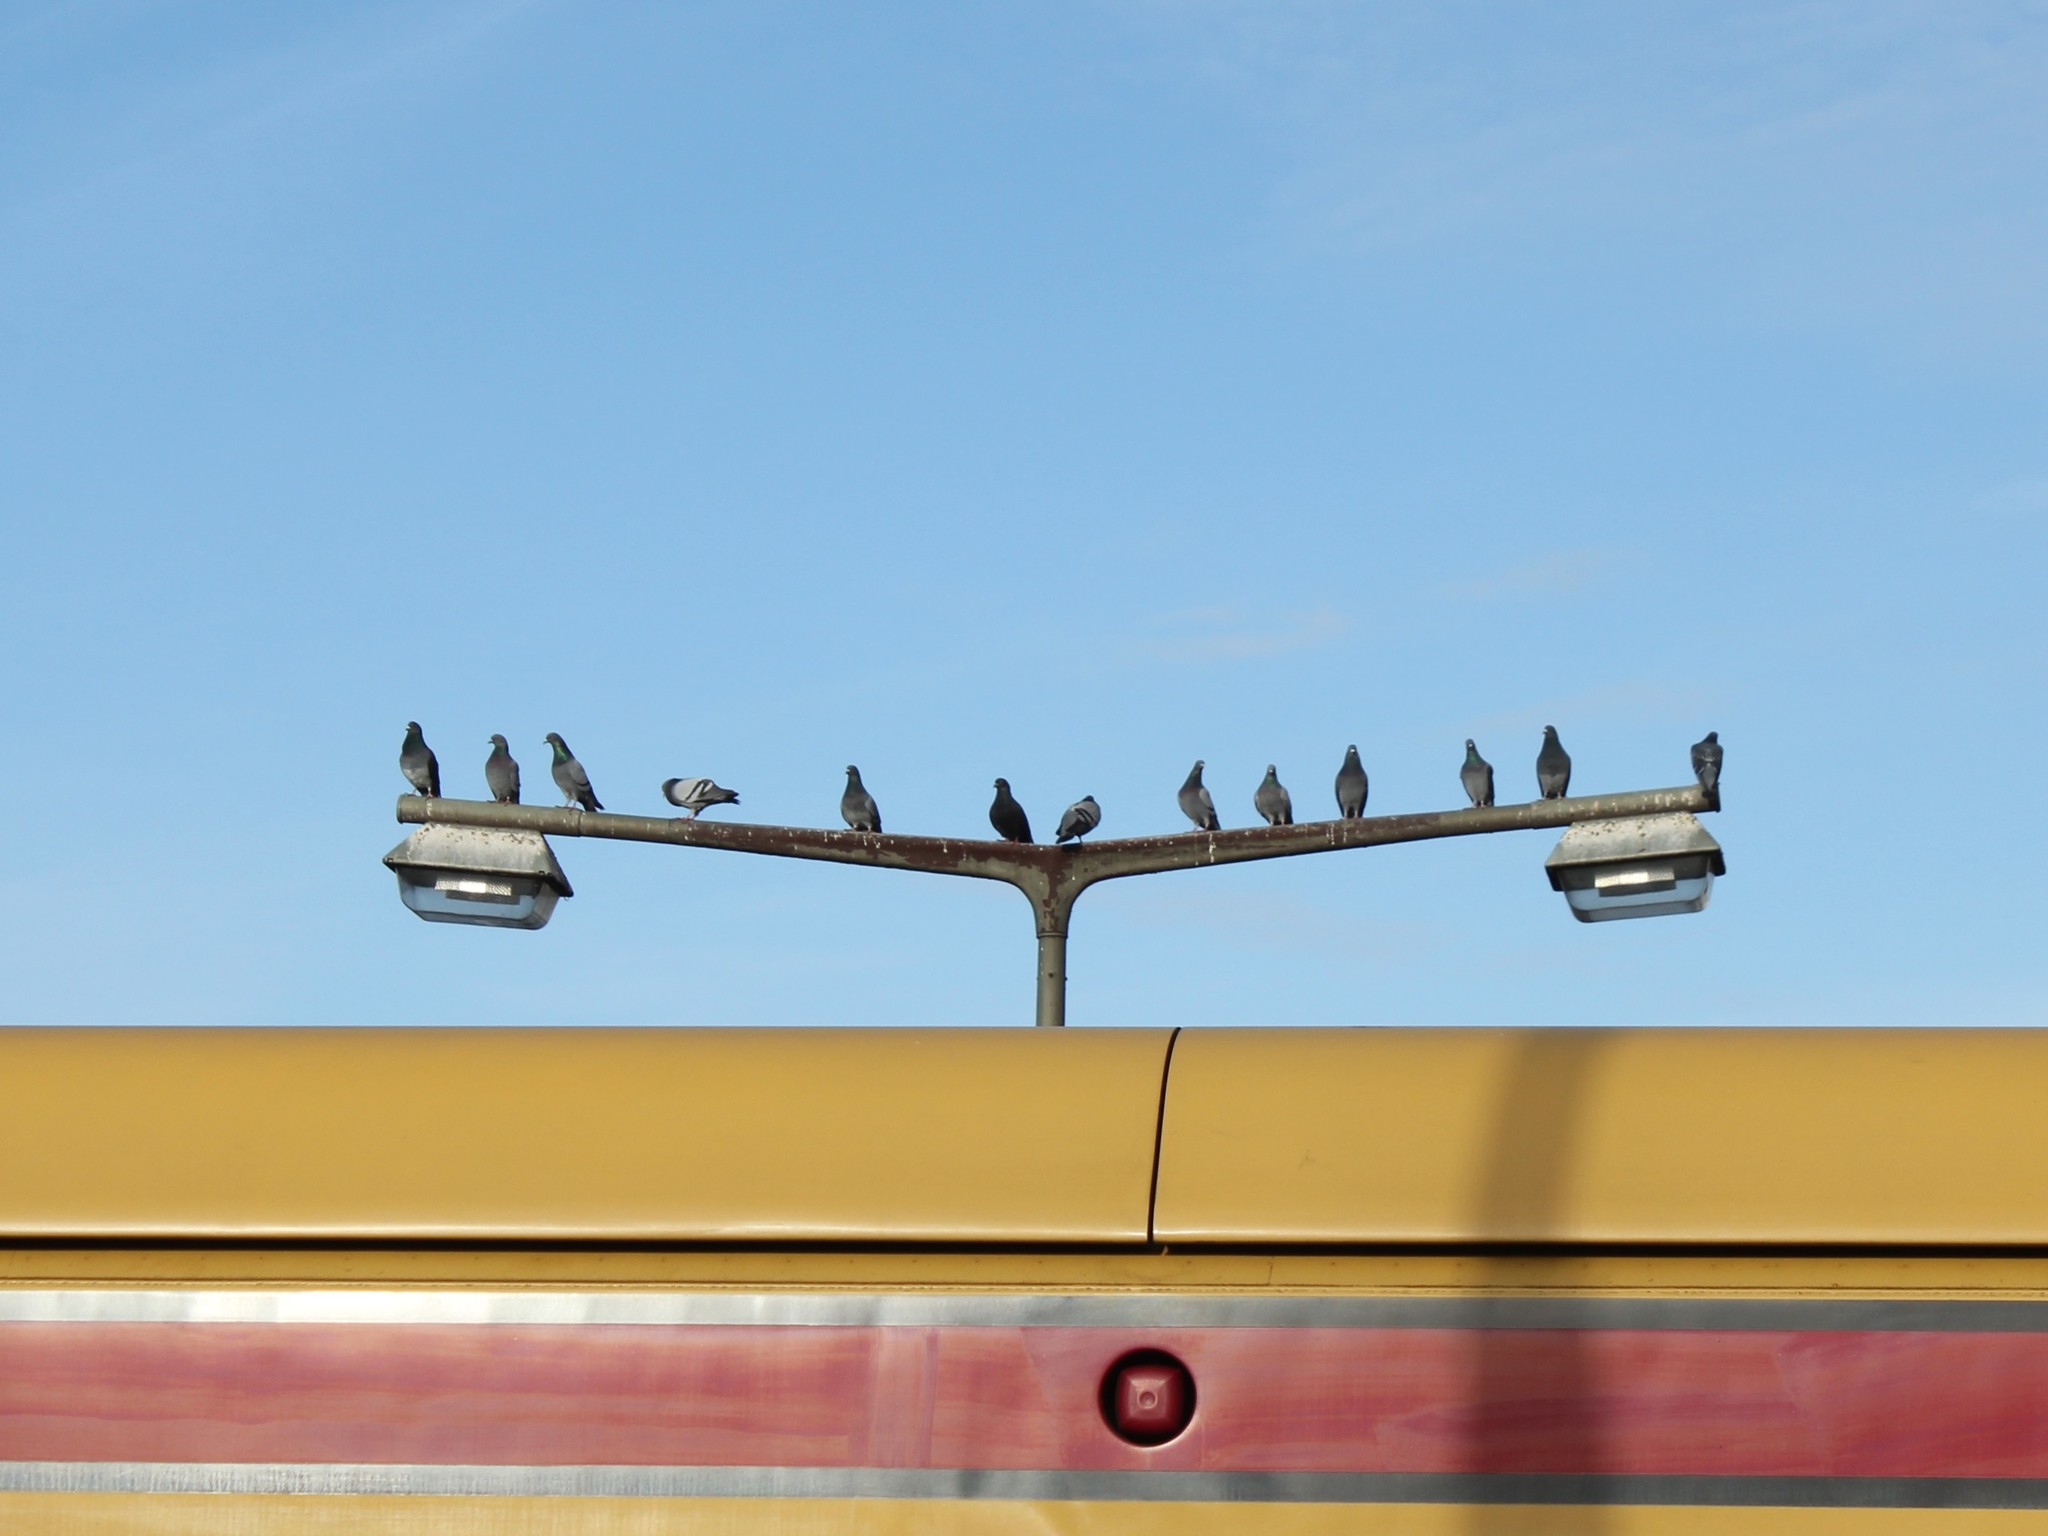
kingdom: Animalia
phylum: Chordata
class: Aves
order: Columbiformes
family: Columbidae
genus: Columba
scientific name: Columba livia
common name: Rock pigeon
